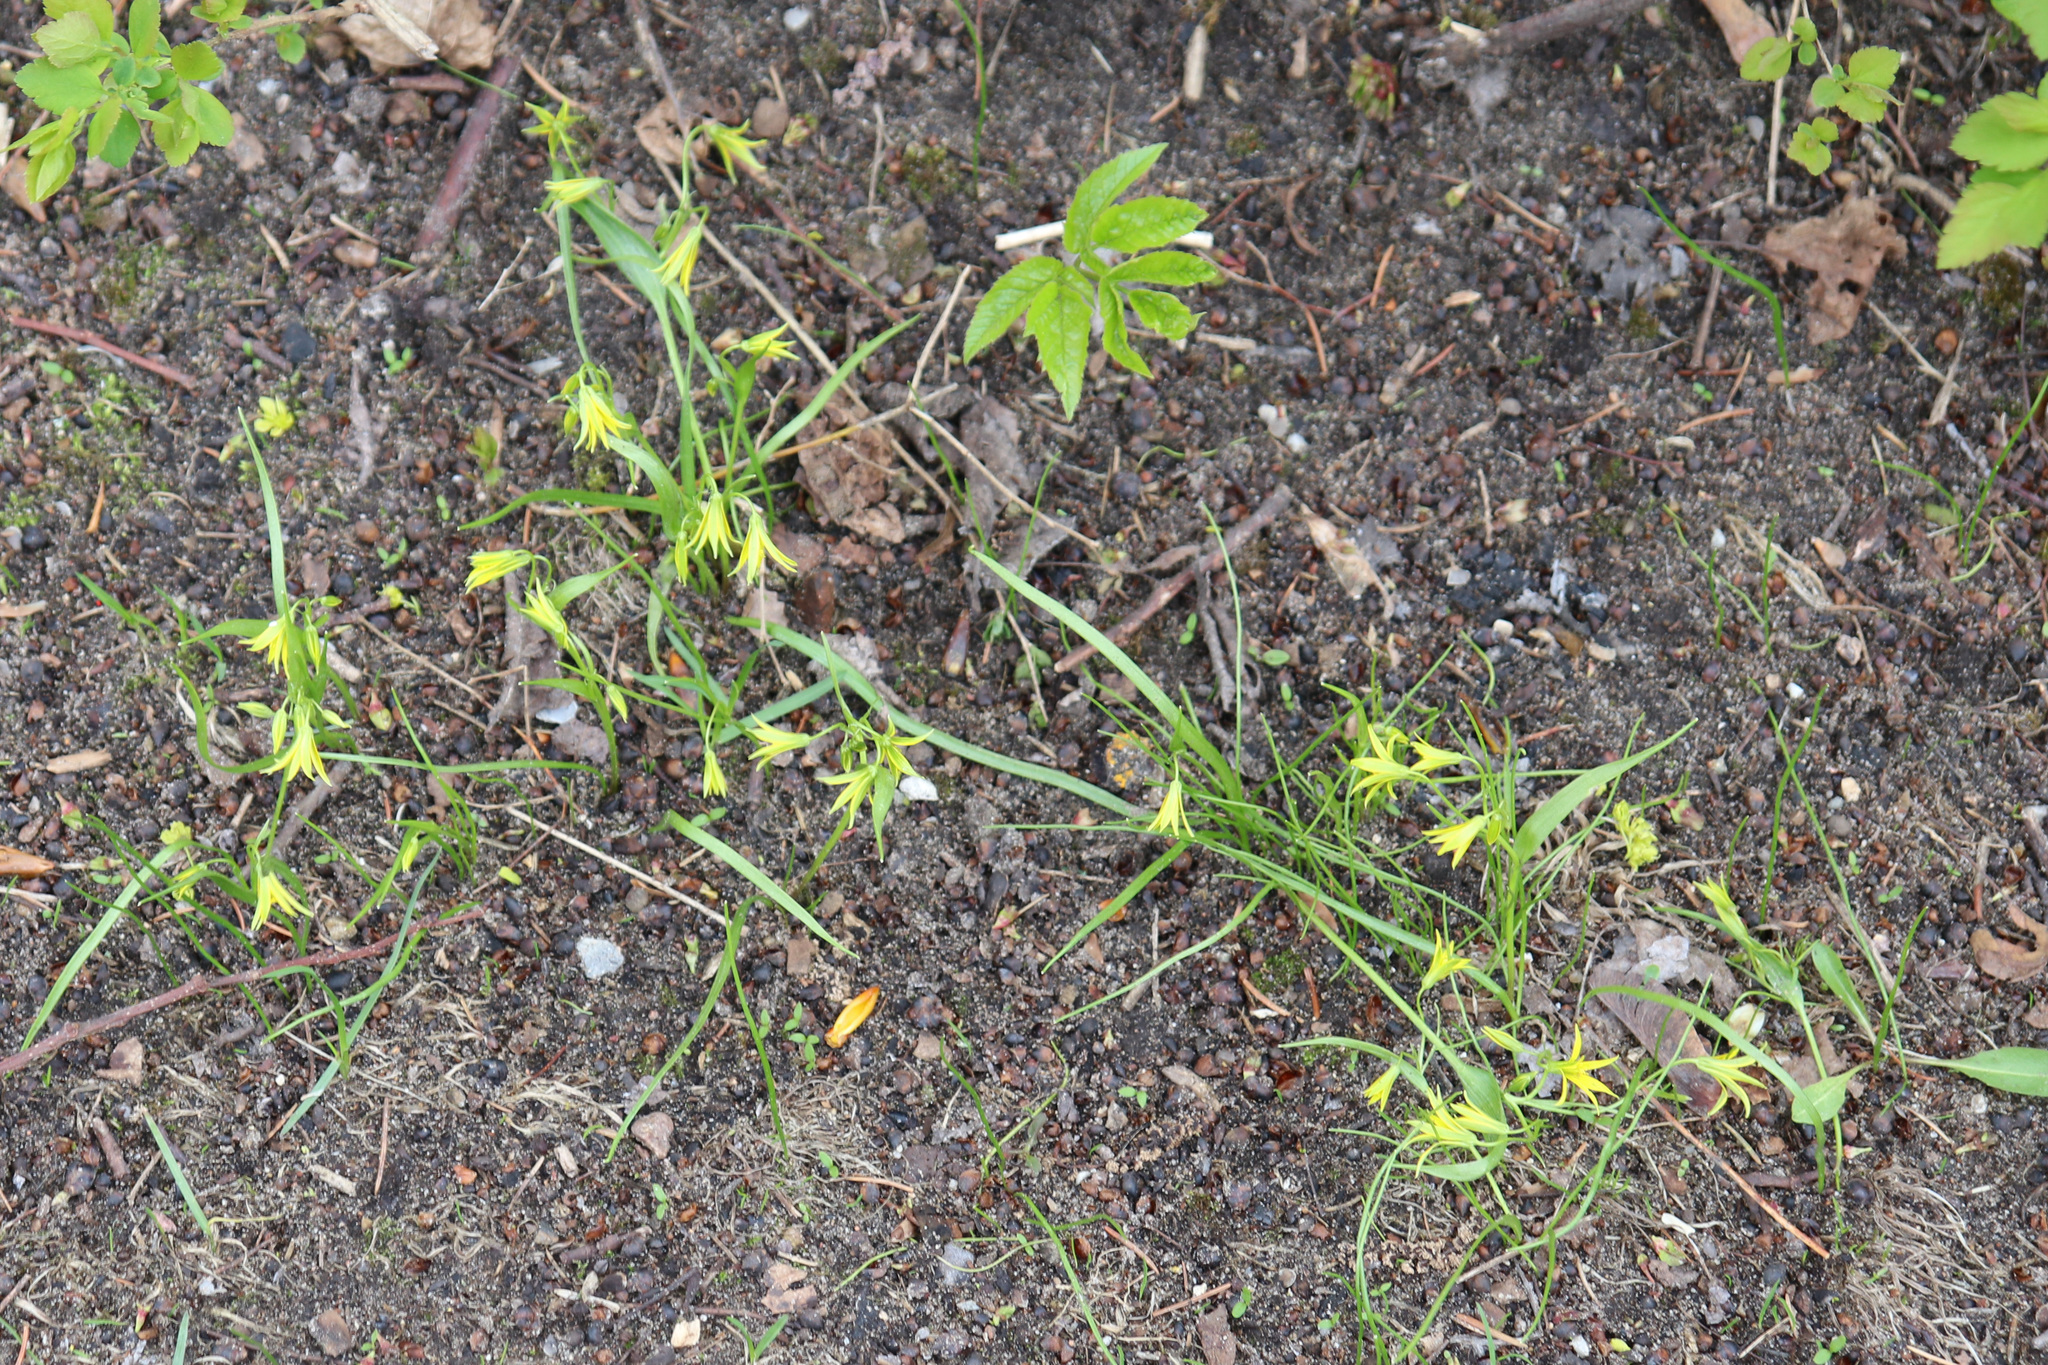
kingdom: Plantae
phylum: Tracheophyta
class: Liliopsida
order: Liliales
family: Liliaceae
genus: Gagea
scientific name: Gagea minima
